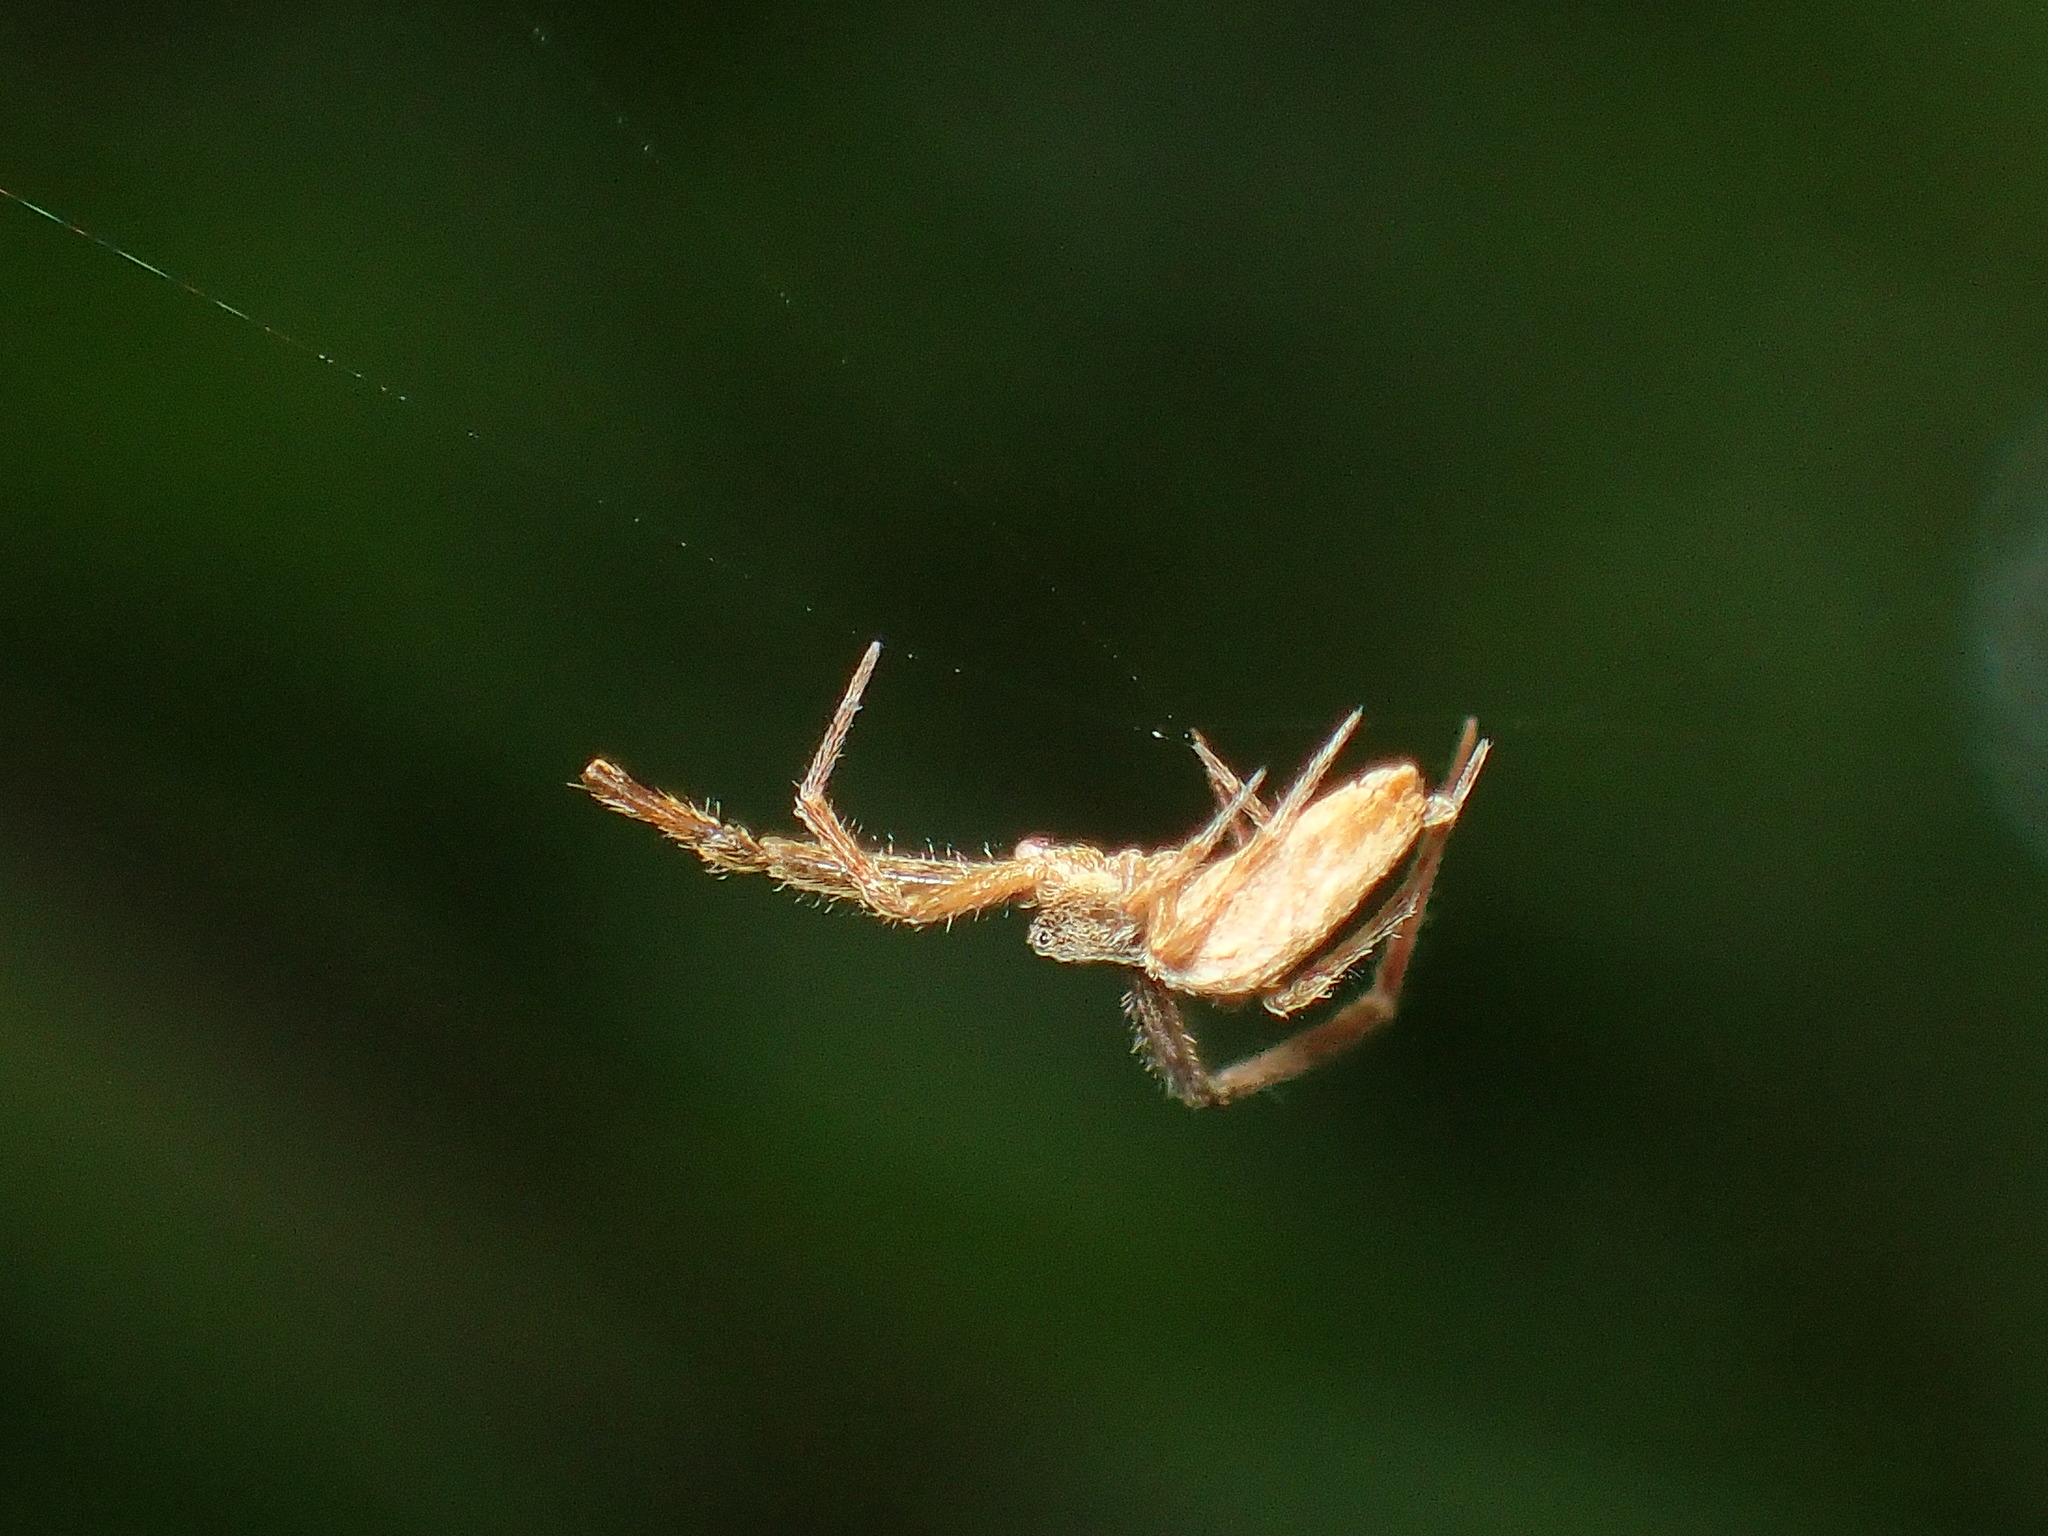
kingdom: Animalia
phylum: Arthropoda
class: Arachnida
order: Araneae
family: Uloboridae
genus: Uloborus
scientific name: Uloborus glomosus
